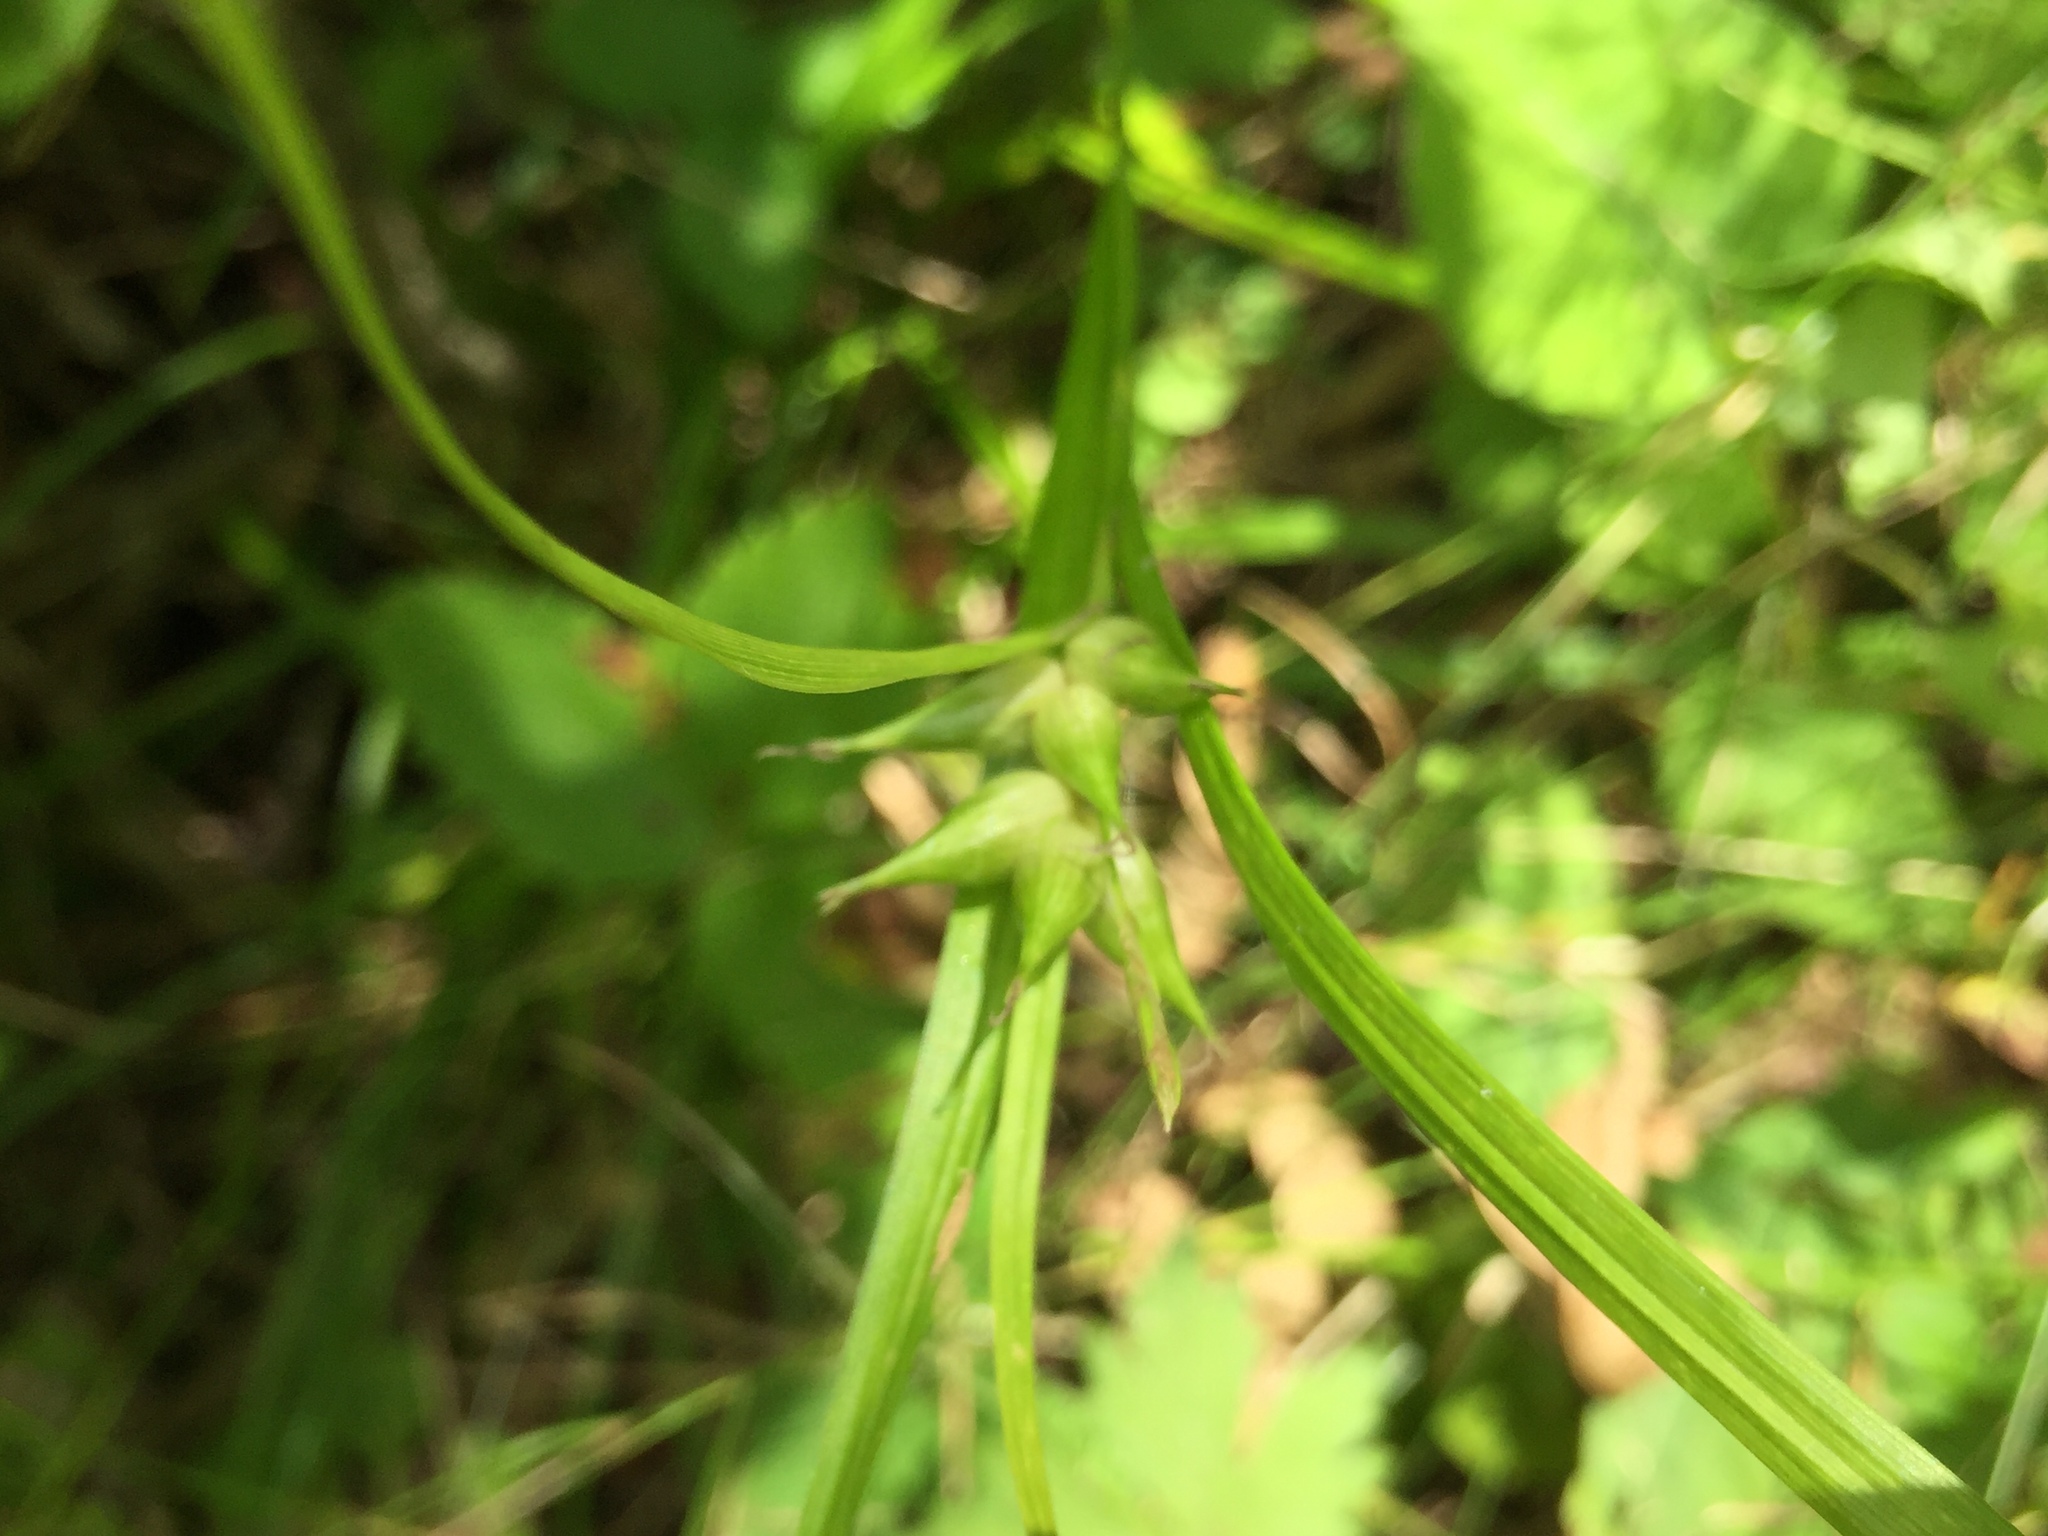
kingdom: Plantae
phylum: Tracheophyta
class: Liliopsida
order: Poales
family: Cyperaceae
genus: Carex
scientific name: Carex intumescens
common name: Greater bladder sedge
